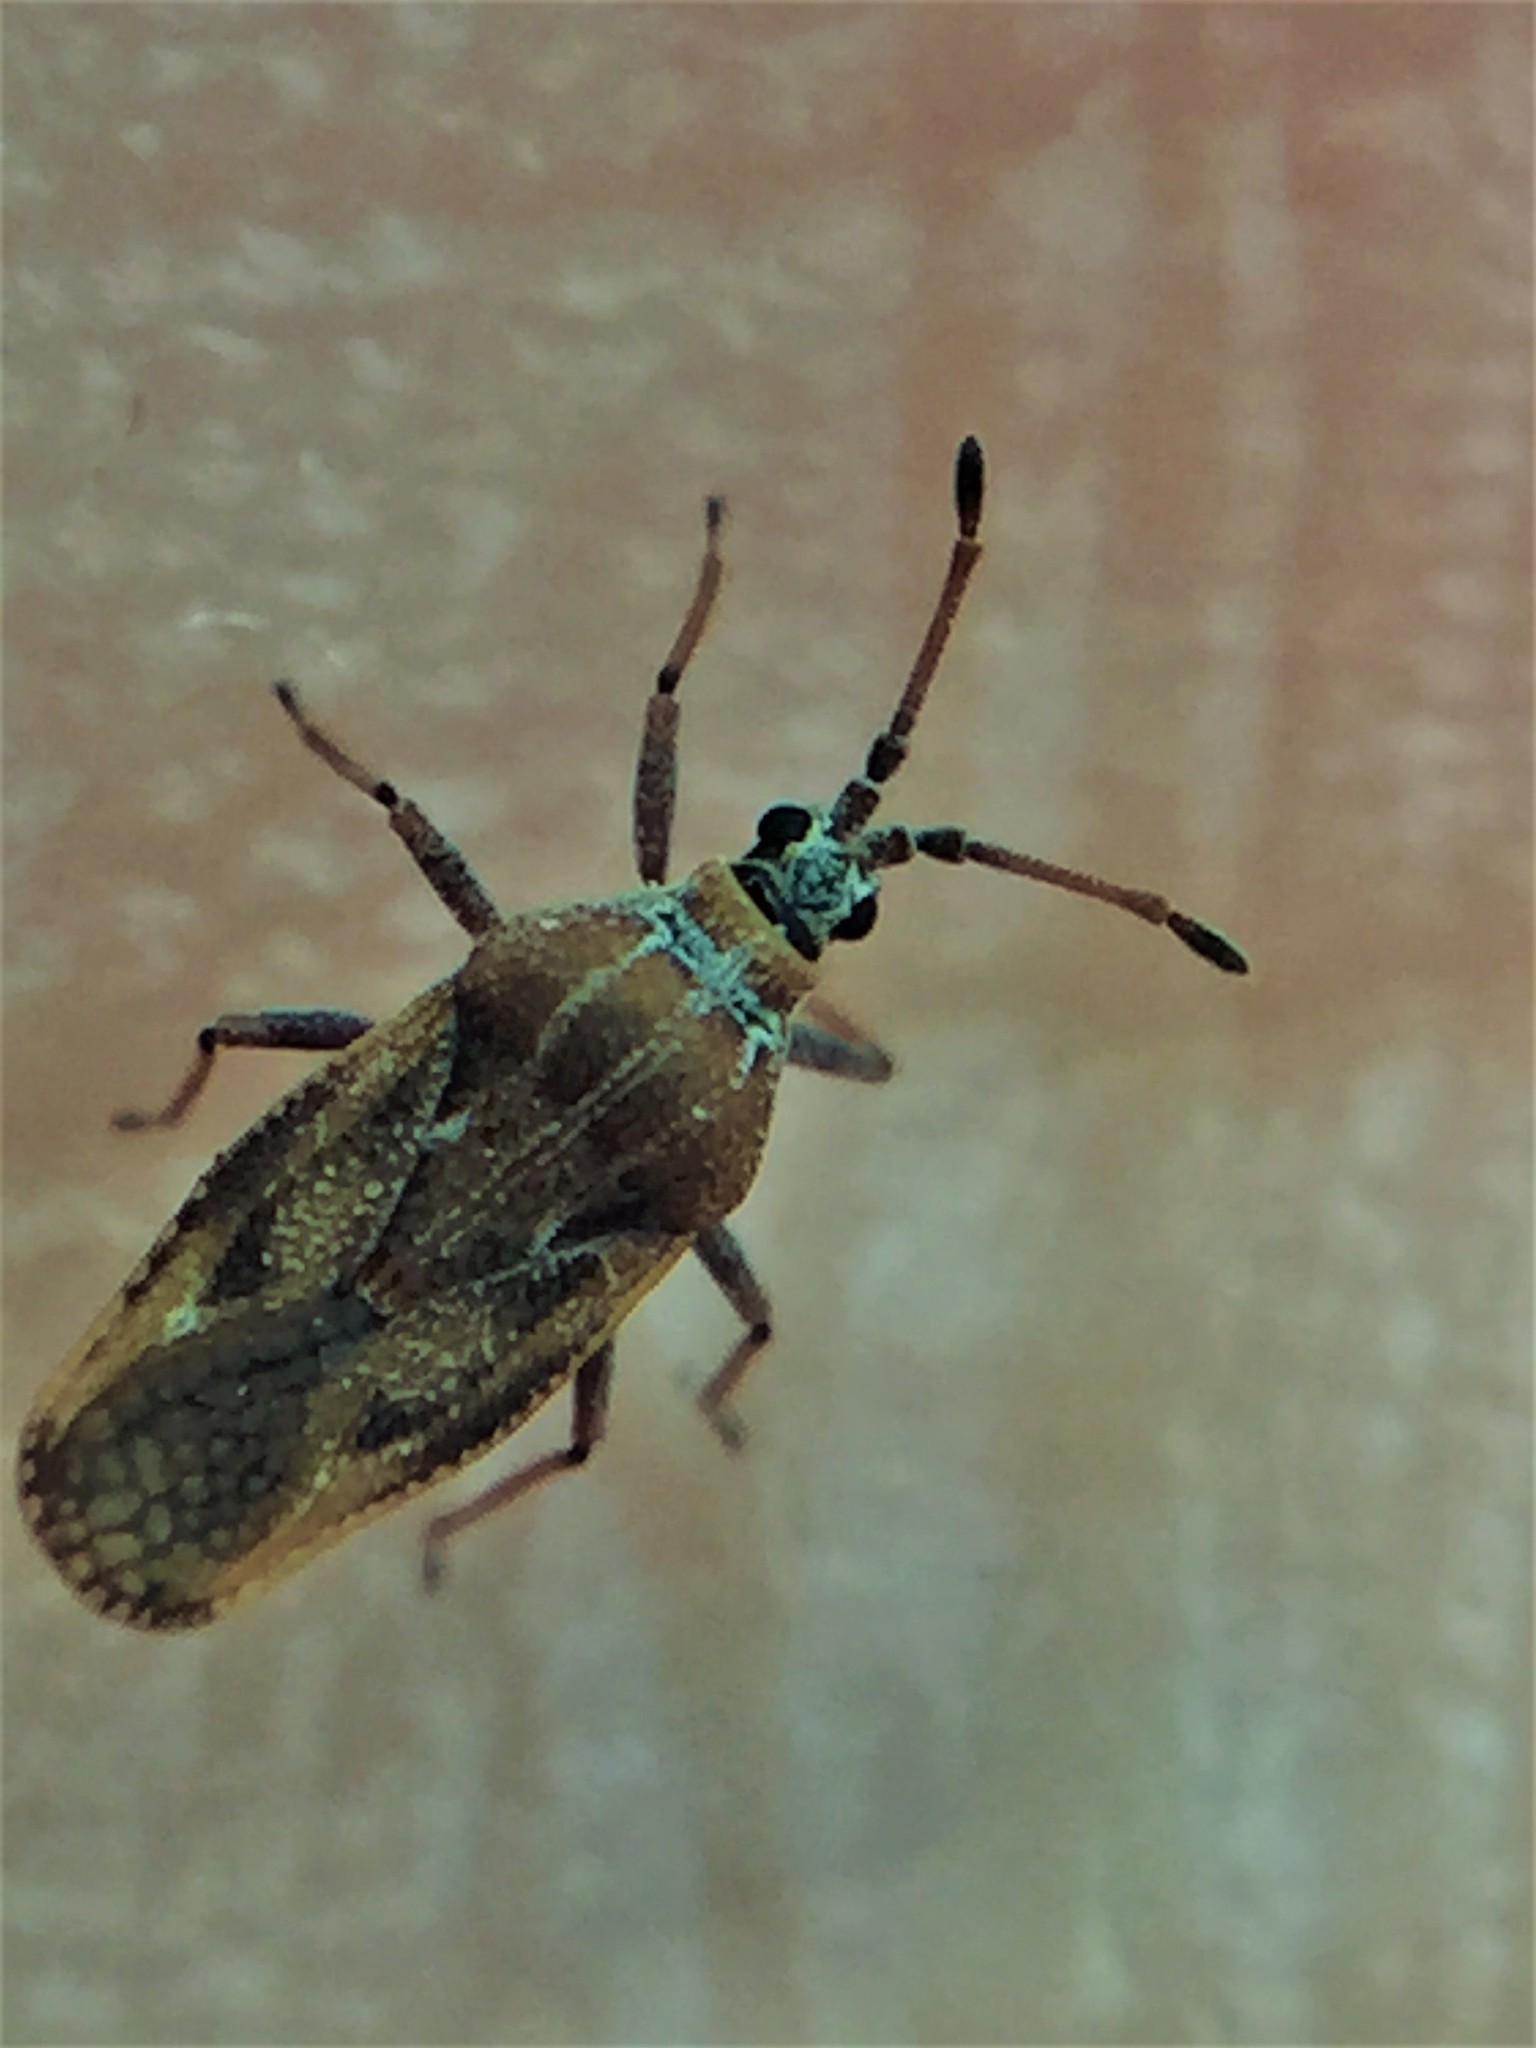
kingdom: Animalia
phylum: Arthropoda
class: Insecta
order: Hemiptera
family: Tingidae
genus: Leptoypha
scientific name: Leptoypha hospita
